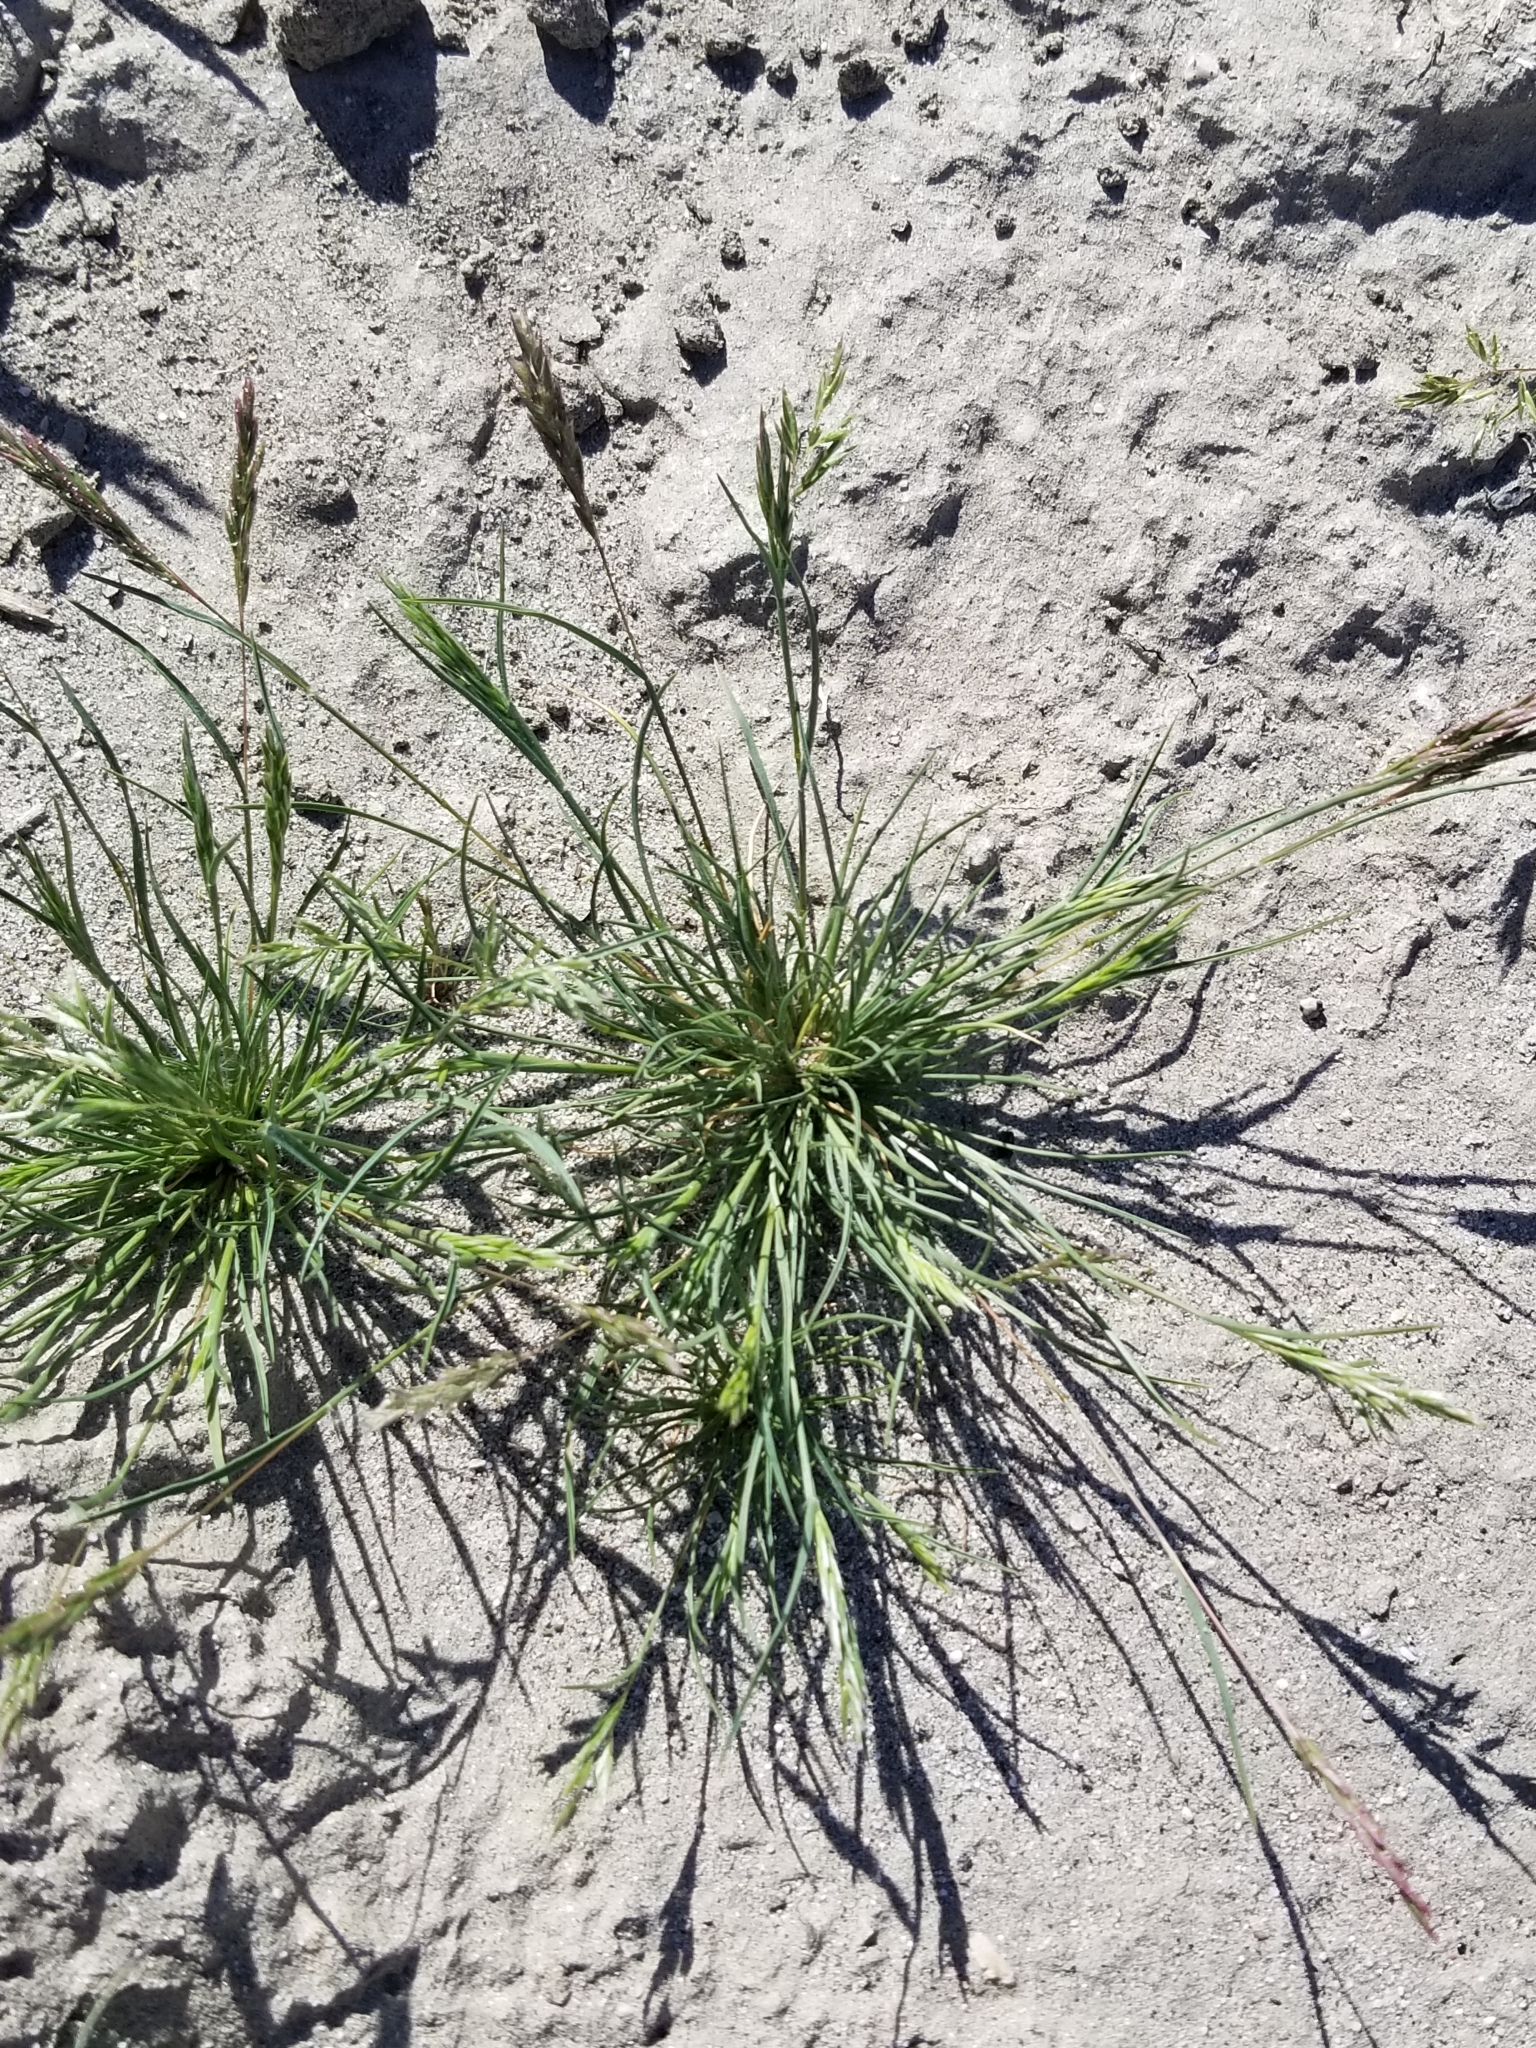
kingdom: Plantae
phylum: Tracheophyta
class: Liliopsida
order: Poales
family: Poaceae
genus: Schismus
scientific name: Schismus barbatus
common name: Kelch-grass
